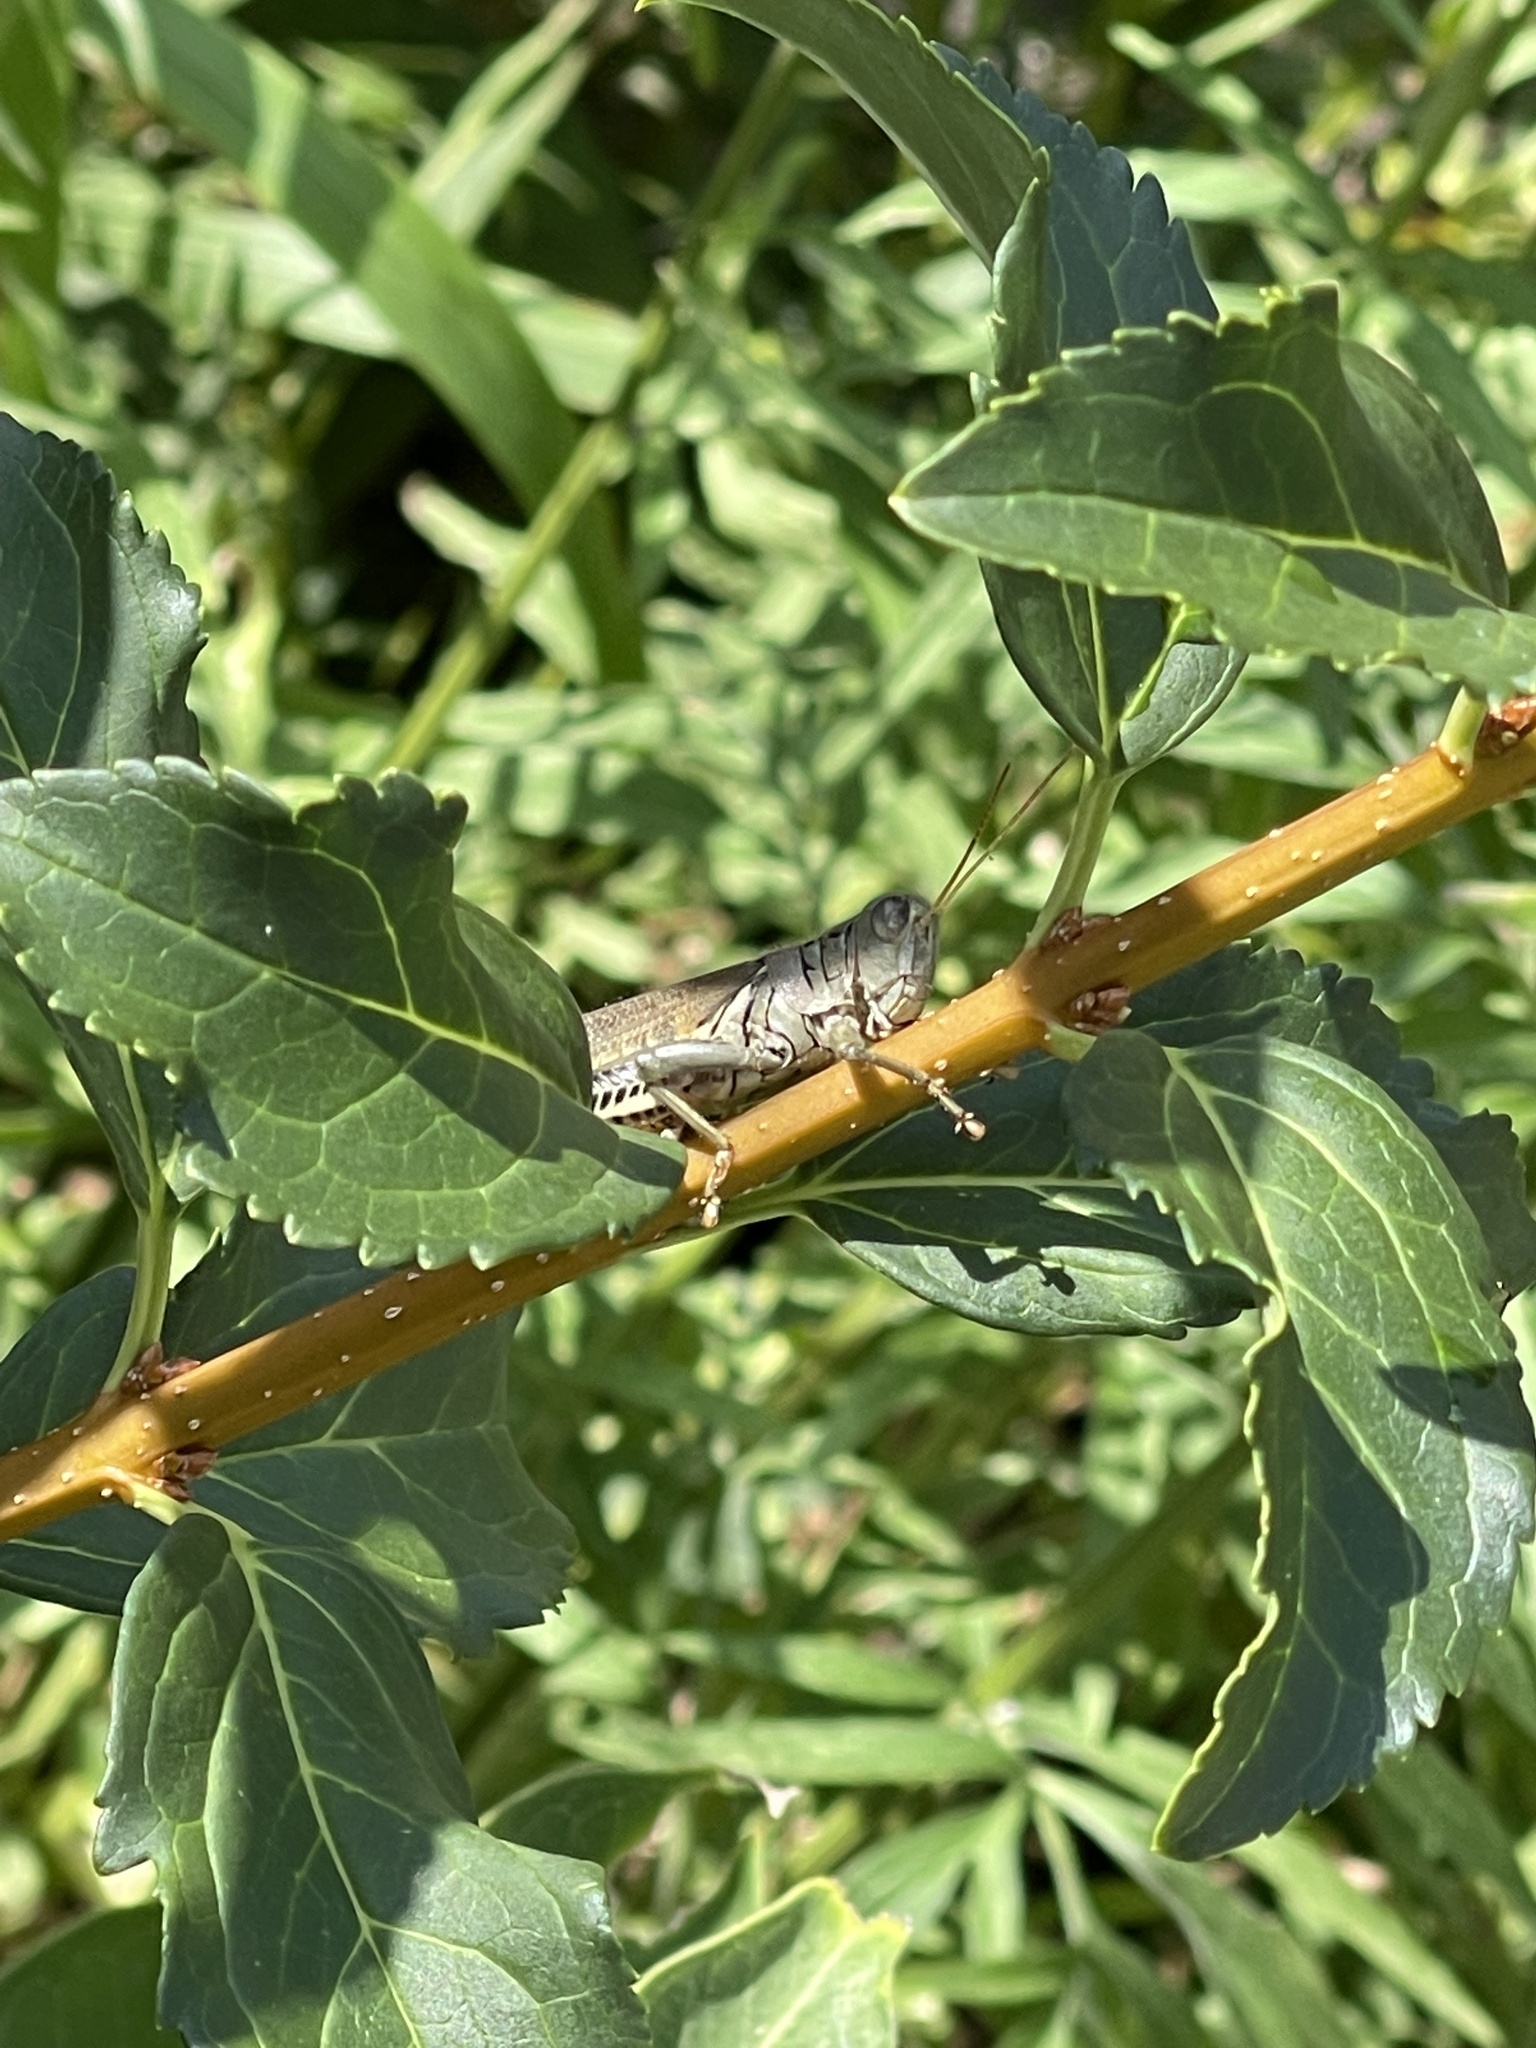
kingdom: Animalia
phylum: Arthropoda
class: Insecta
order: Orthoptera
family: Acrididae
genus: Melanoplus
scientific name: Melanoplus differentialis
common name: Differential grasshopper
